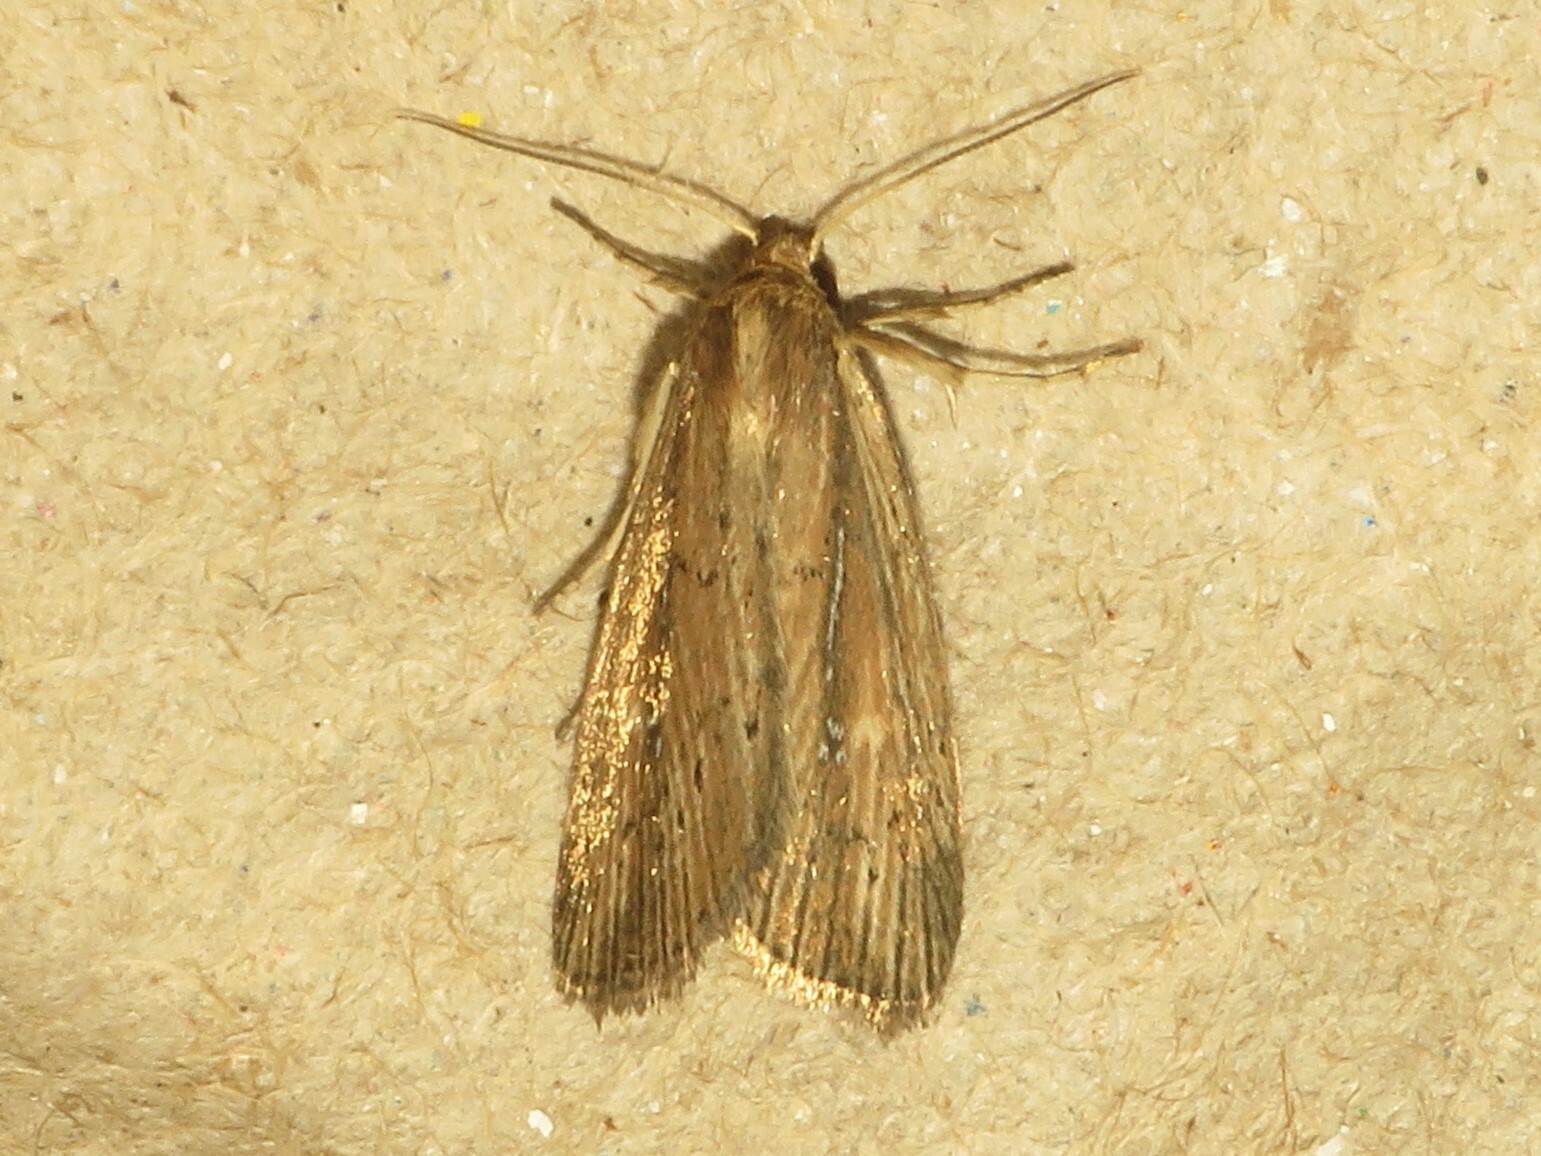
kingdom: Animalia
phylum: Arthropoda
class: Insecta
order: Lepidoptera
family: Noctuidae
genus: Photedes
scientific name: Photedes defecta
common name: Narrow-winged borer moth
